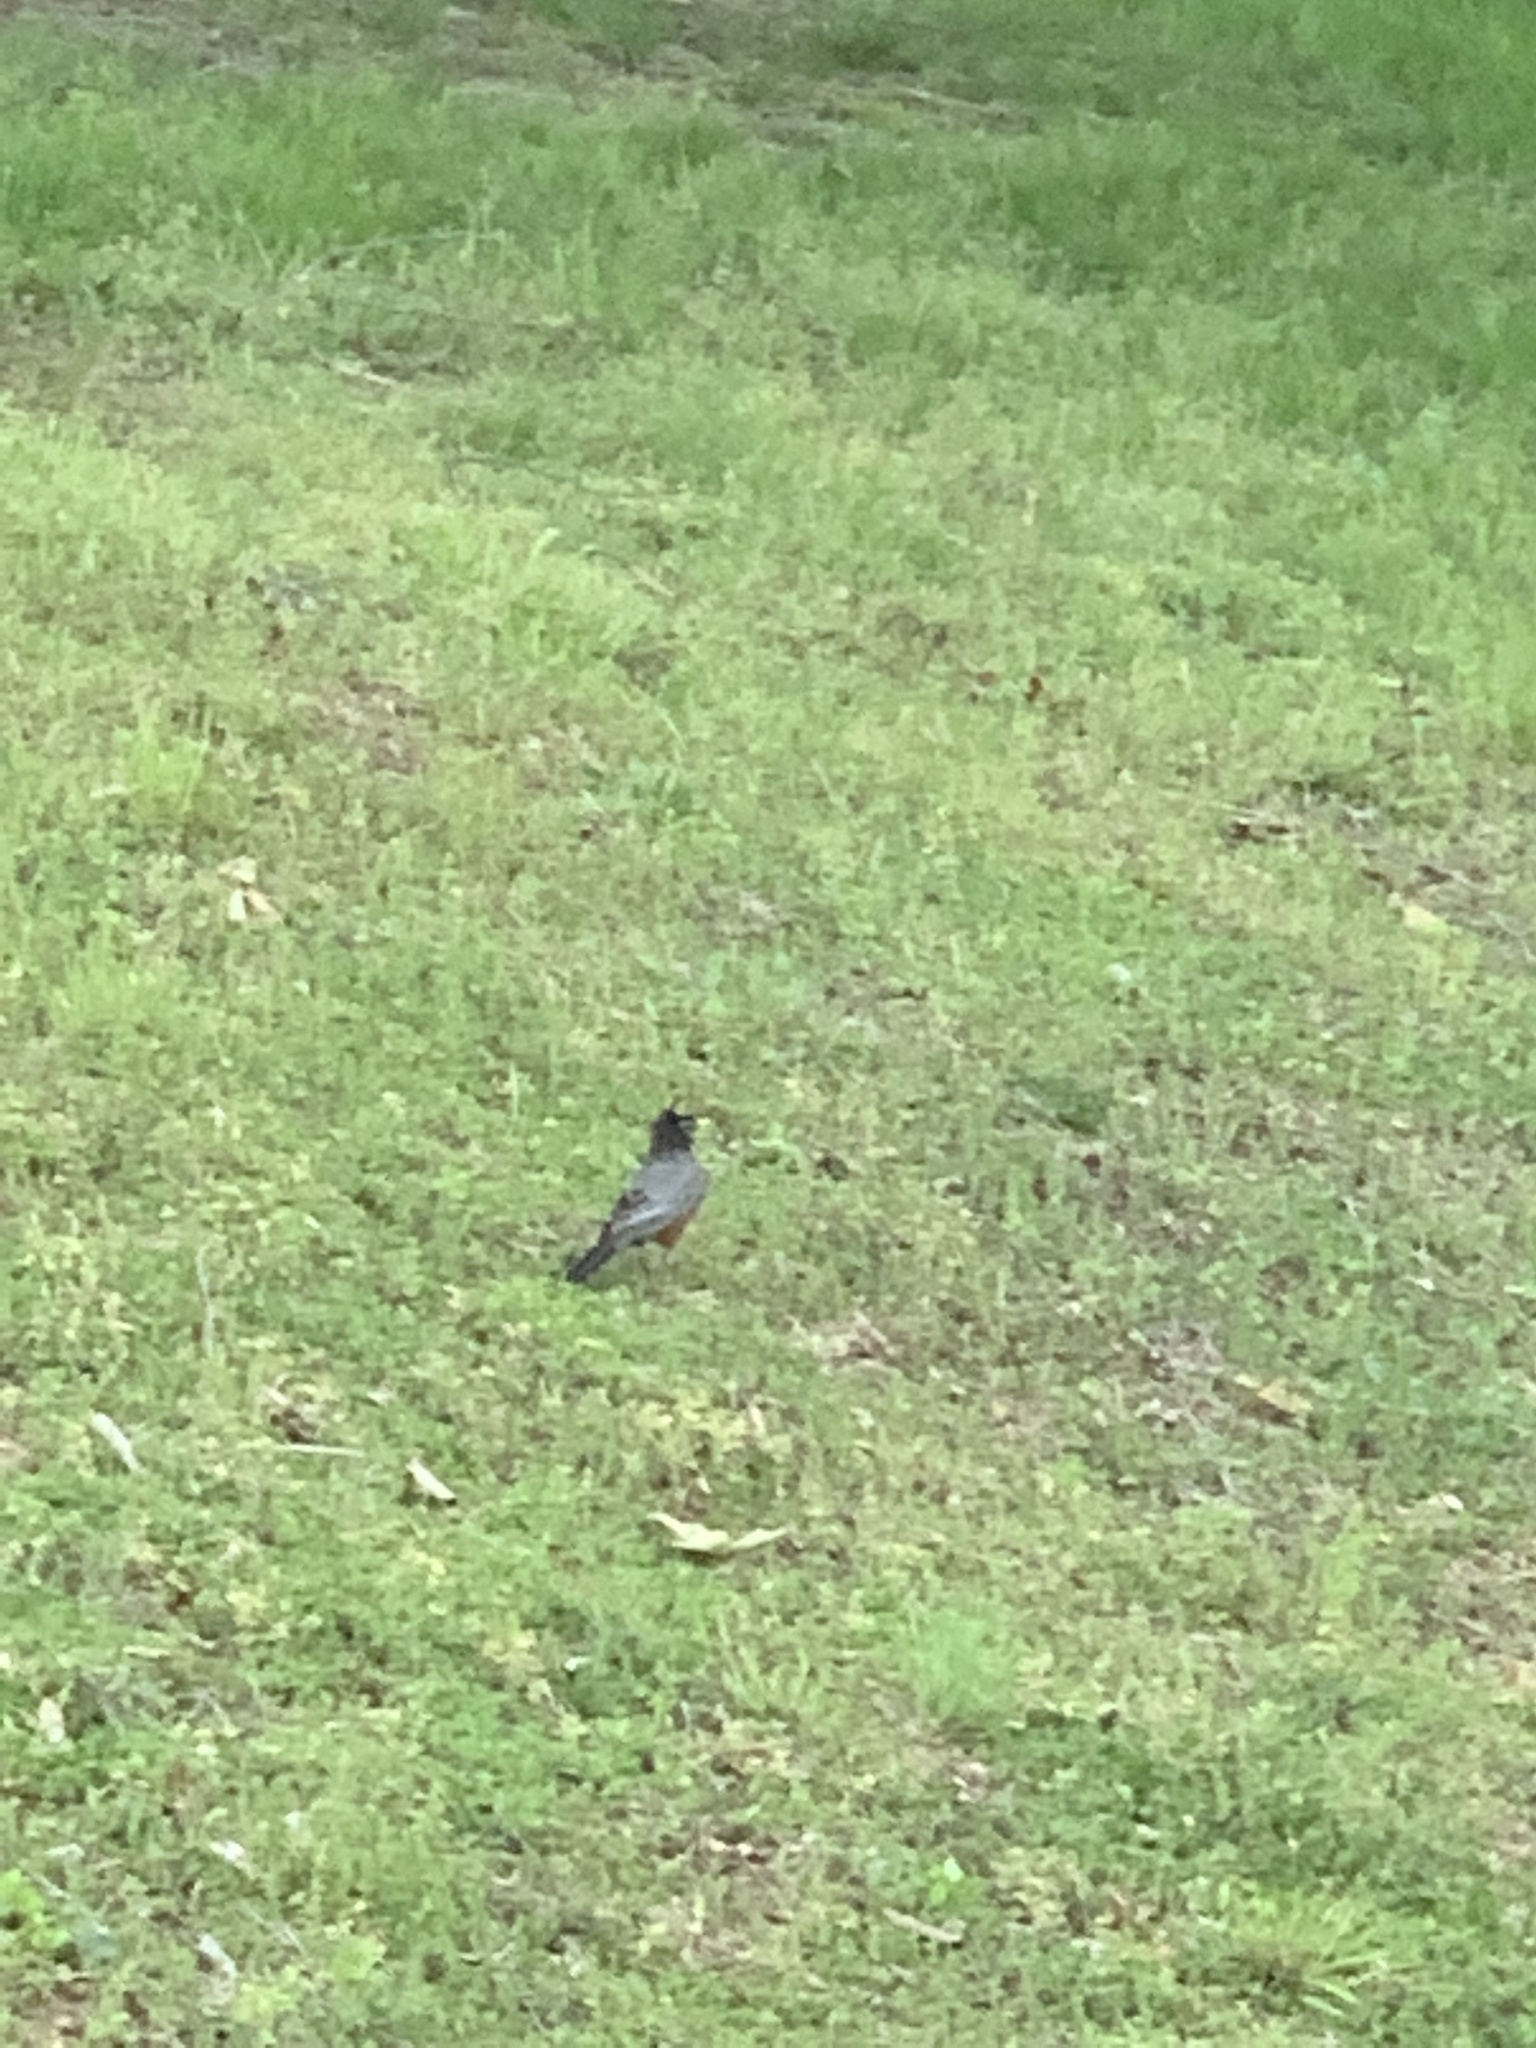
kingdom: Animalia
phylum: Chordata
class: Aves
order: Passeriformes
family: Turdidae
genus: Turdus
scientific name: Turdus migratorius
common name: American robin
